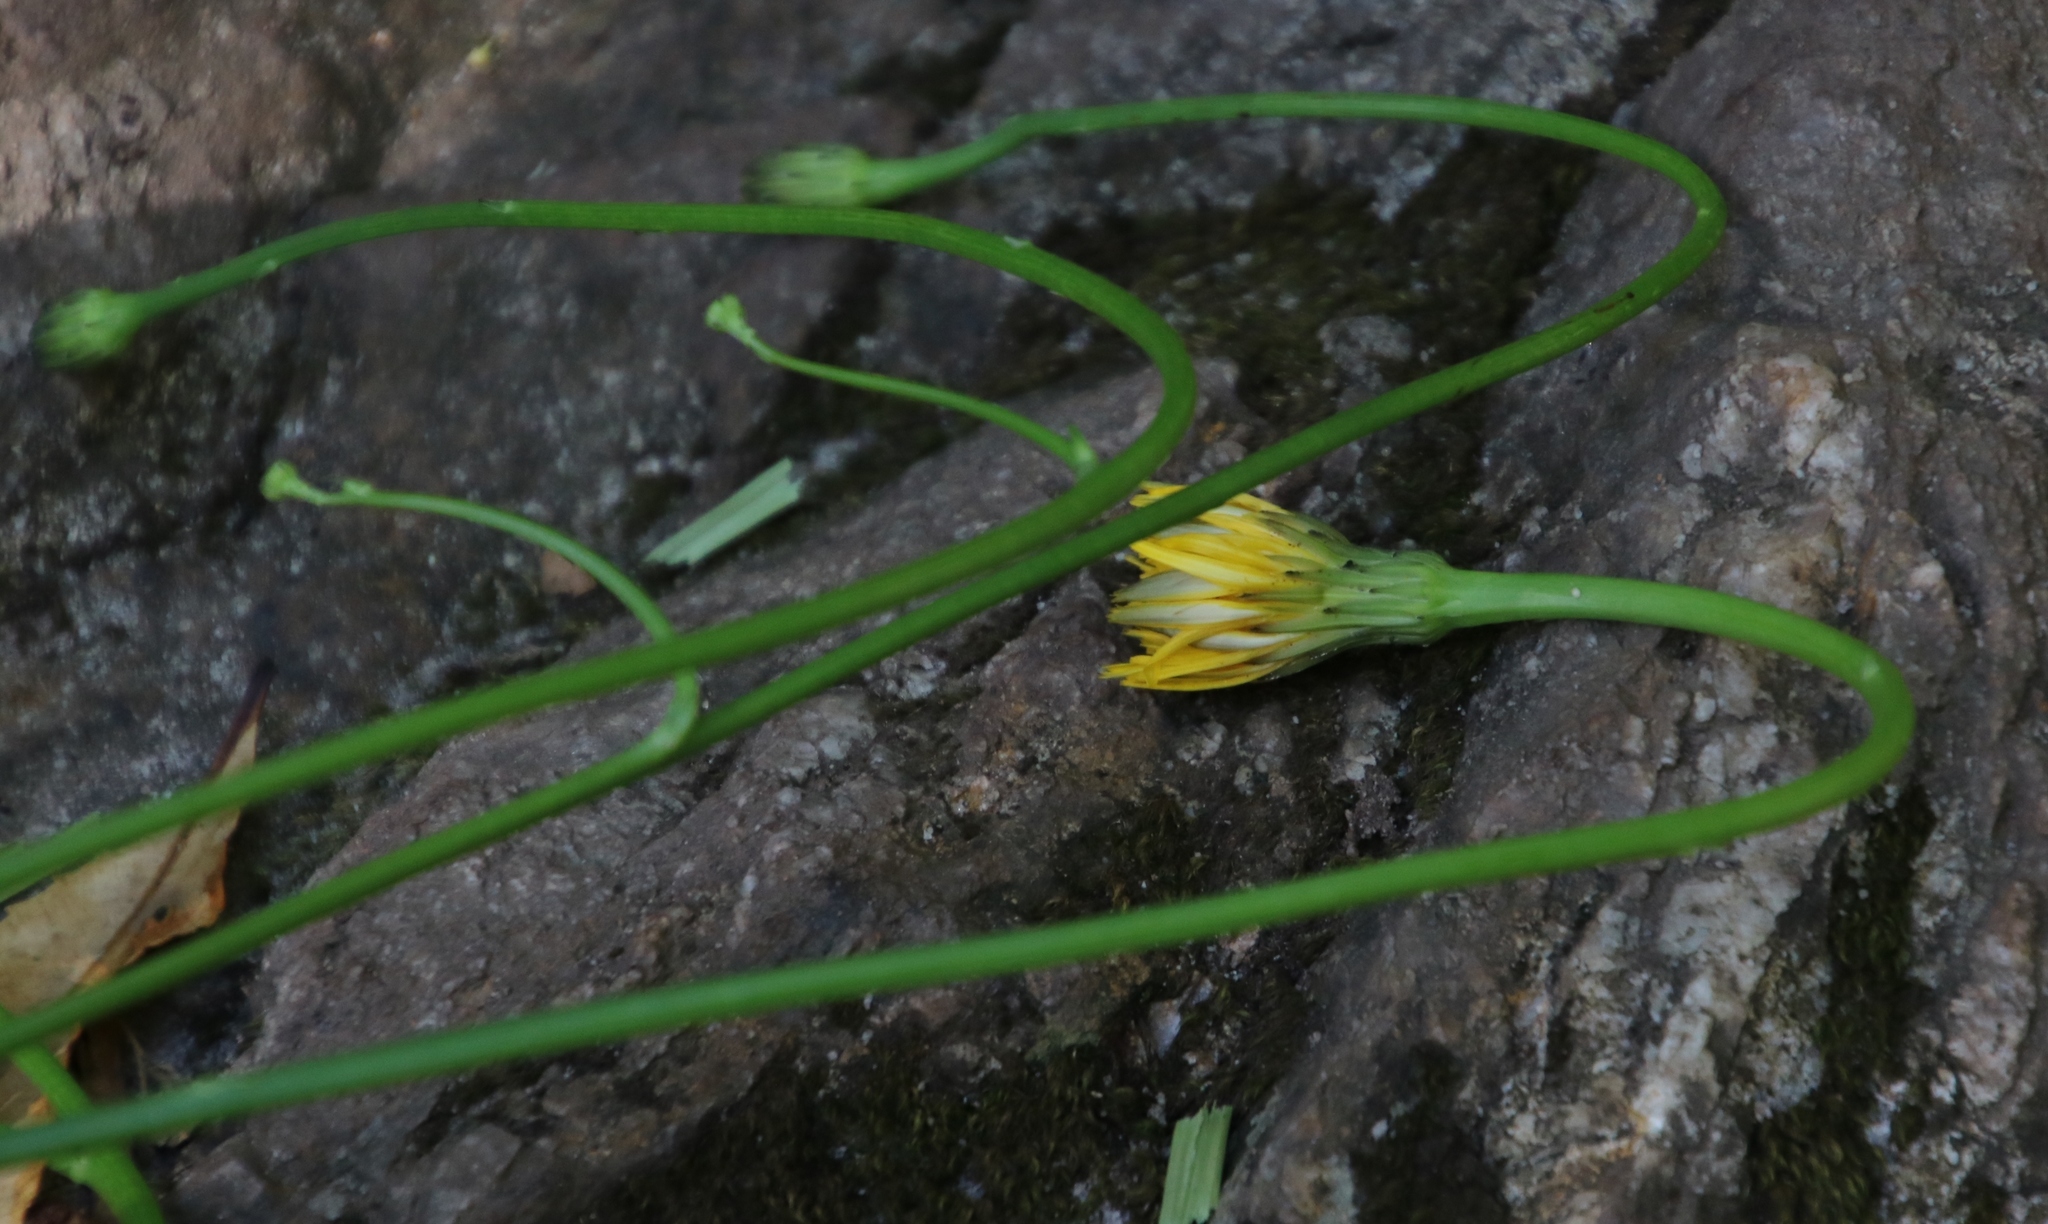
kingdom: Plantae
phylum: Tracheophyta
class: Magnoliopsida
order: Asterales
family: Asteraceae
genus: Hypochaeris
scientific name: Hypochaeris radicata
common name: Flatweed
